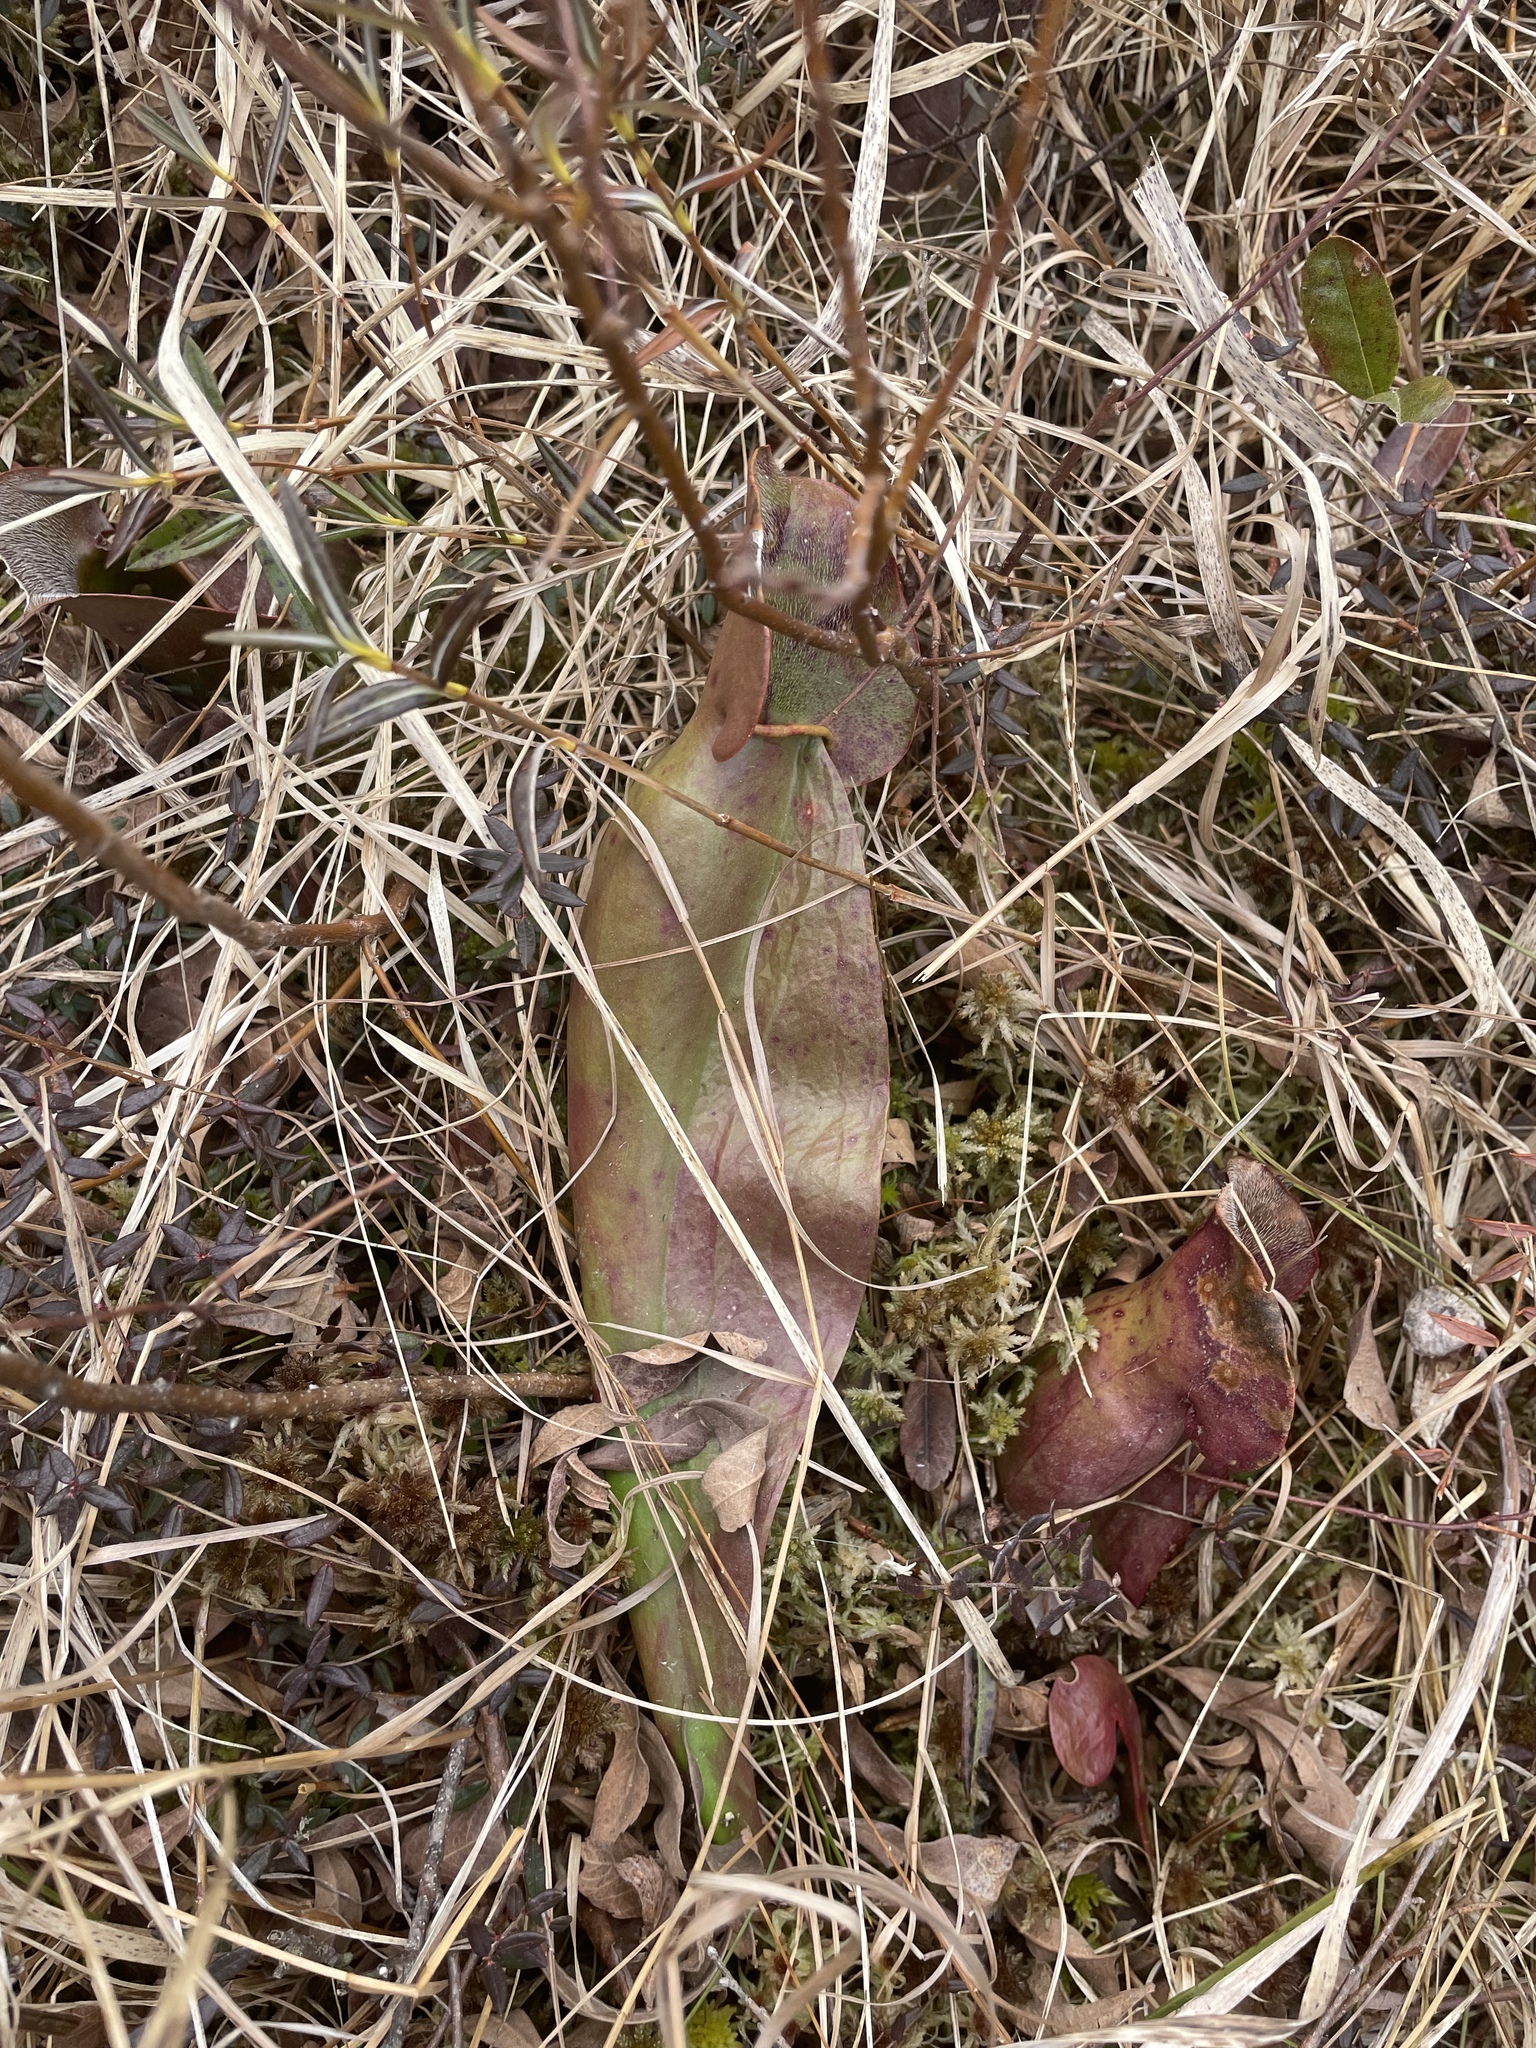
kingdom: Plantae
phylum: Tracheophyta
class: Magnoliopsida
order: Ericales
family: Sarraceniaceae
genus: Sarracenia
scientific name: Sarracenia purpurea
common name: Pitcherplant
